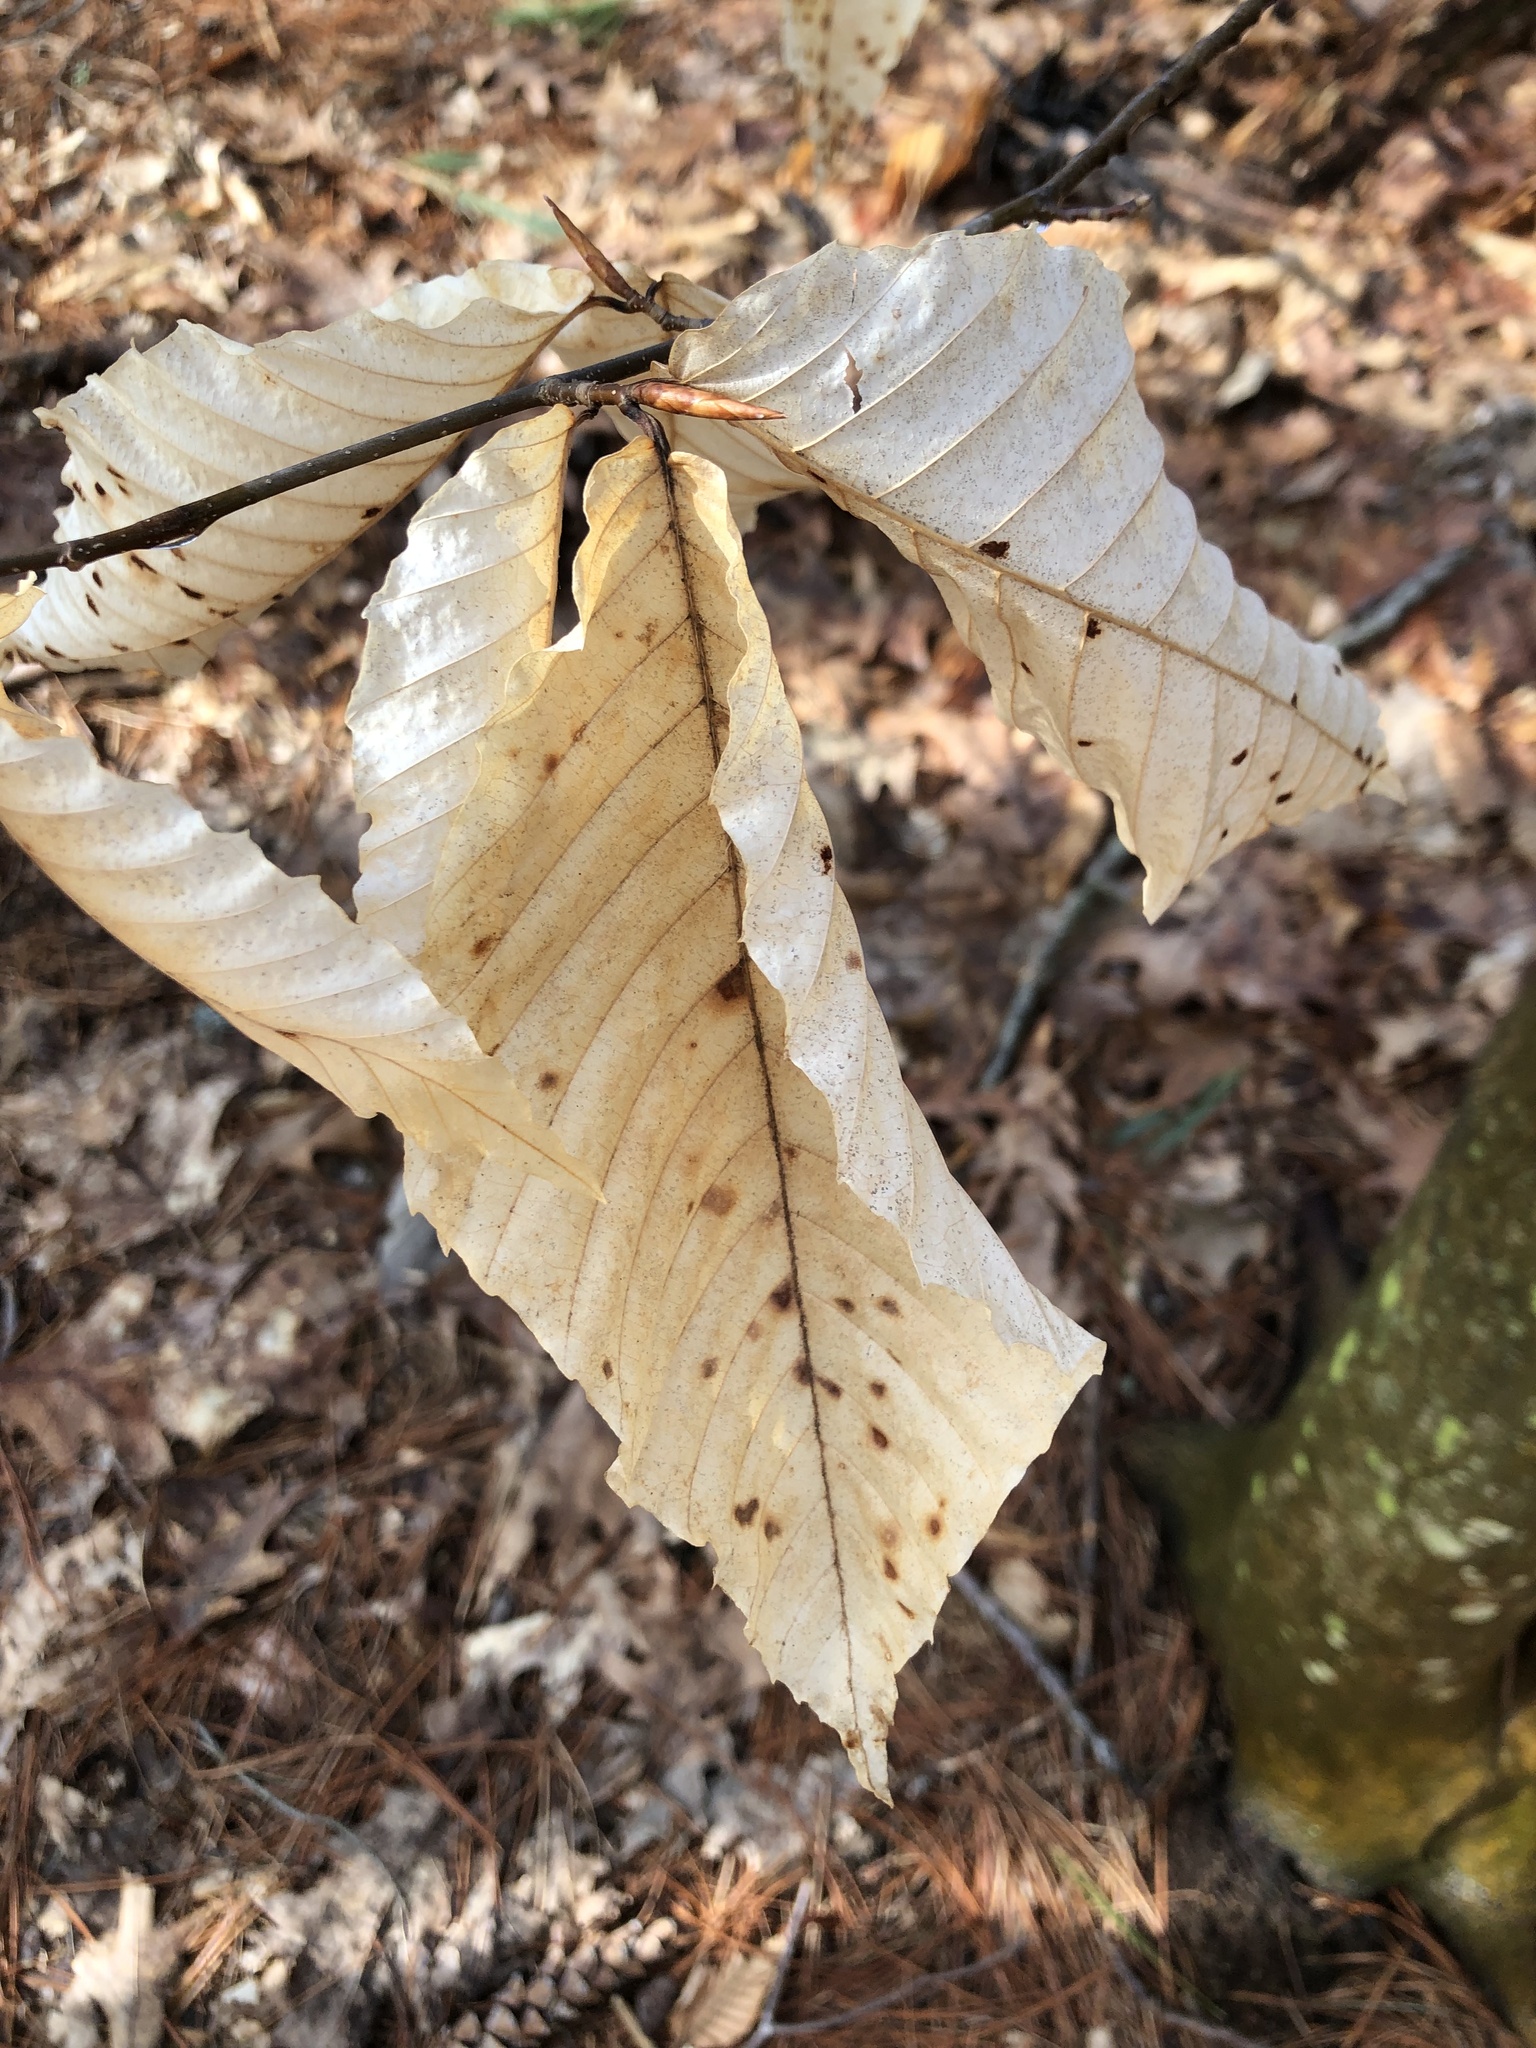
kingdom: Animalia
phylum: Arthropoda
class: Arachnida
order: Trombidiformes
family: Eriophyidae
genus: Acalitus
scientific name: Acalitus
